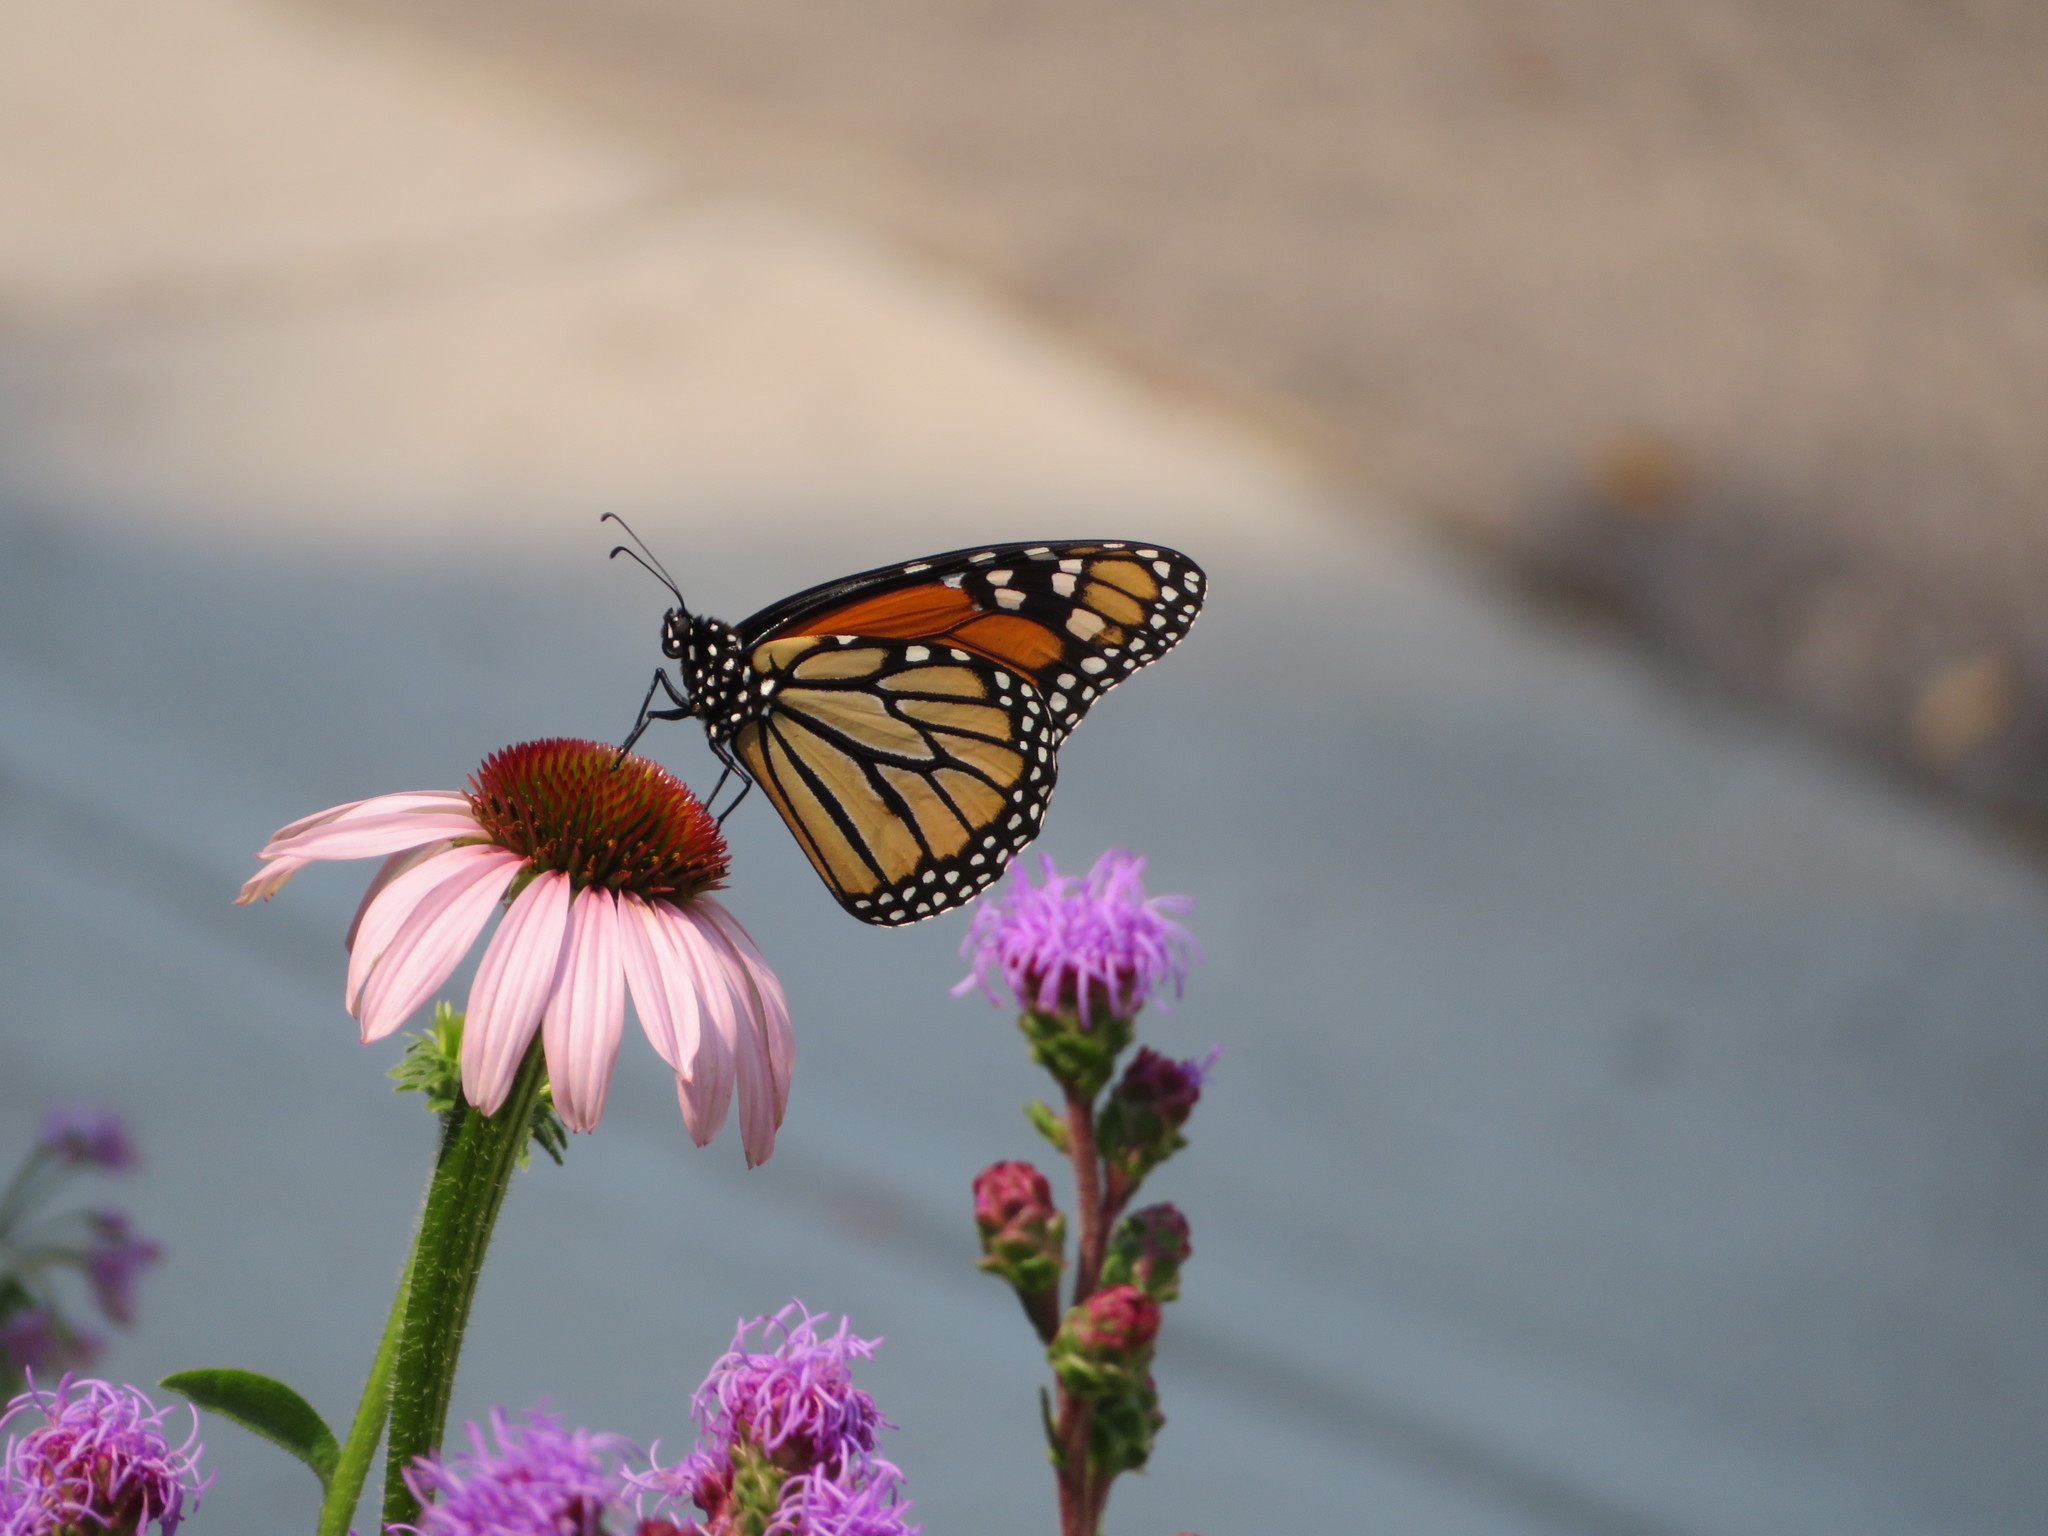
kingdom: Animalia
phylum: Arthropoda
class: Insecta
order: Lepidoptera
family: Nymphalidae
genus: Danaus
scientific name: Danaus plexippus
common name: Monarch
